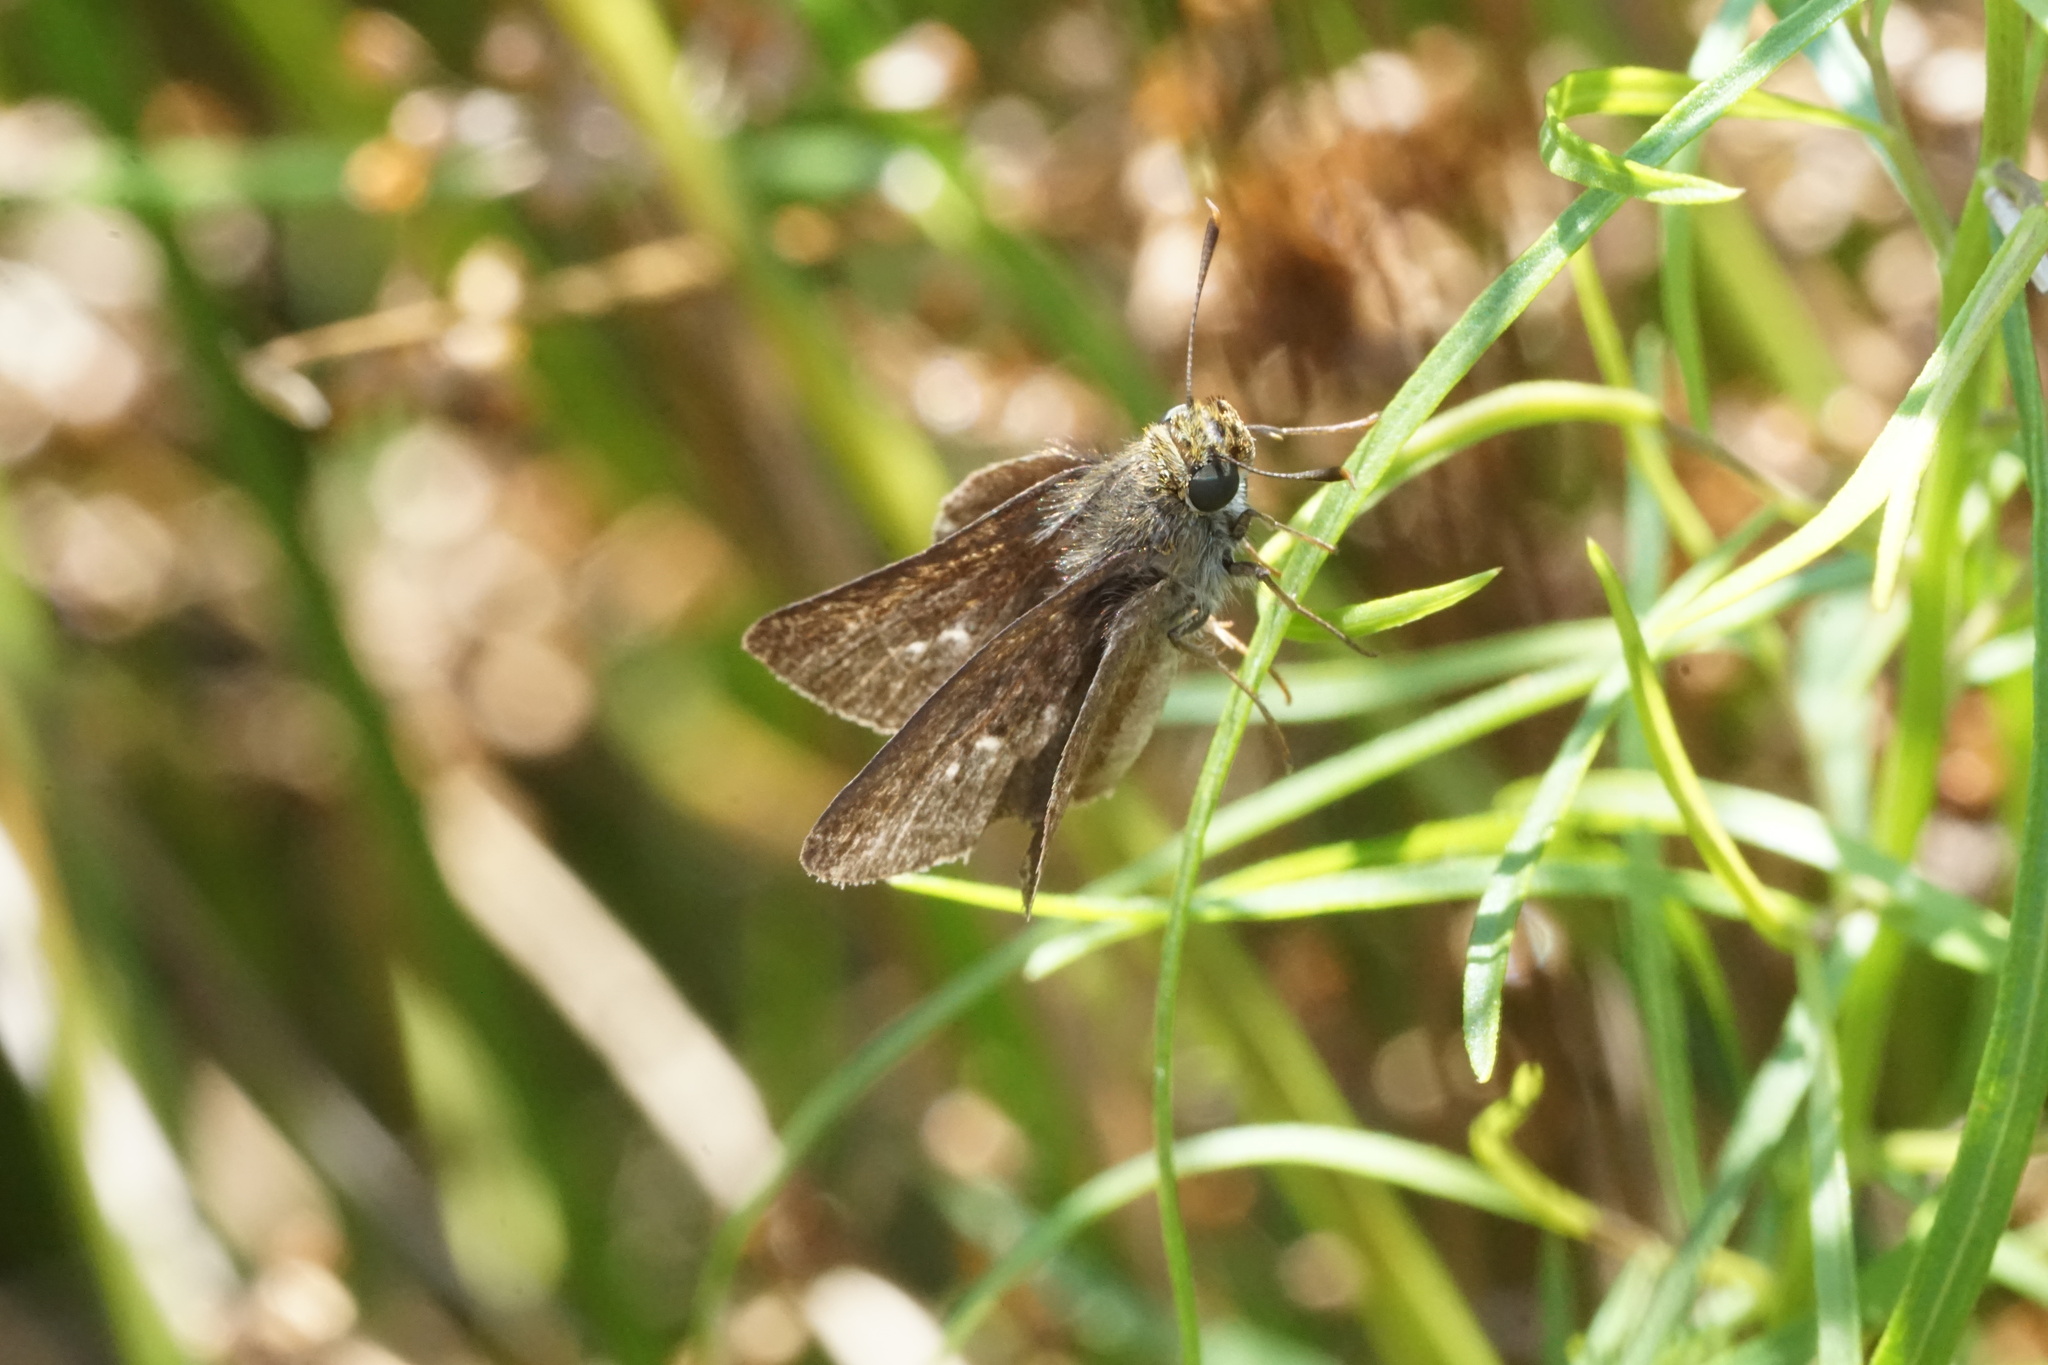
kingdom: Animalia
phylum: Arthropoda
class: Insecta
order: Lepidoptera
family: Hesperiidae
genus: Euphyes
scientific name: Euphyes vestris
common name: Dun skipper
